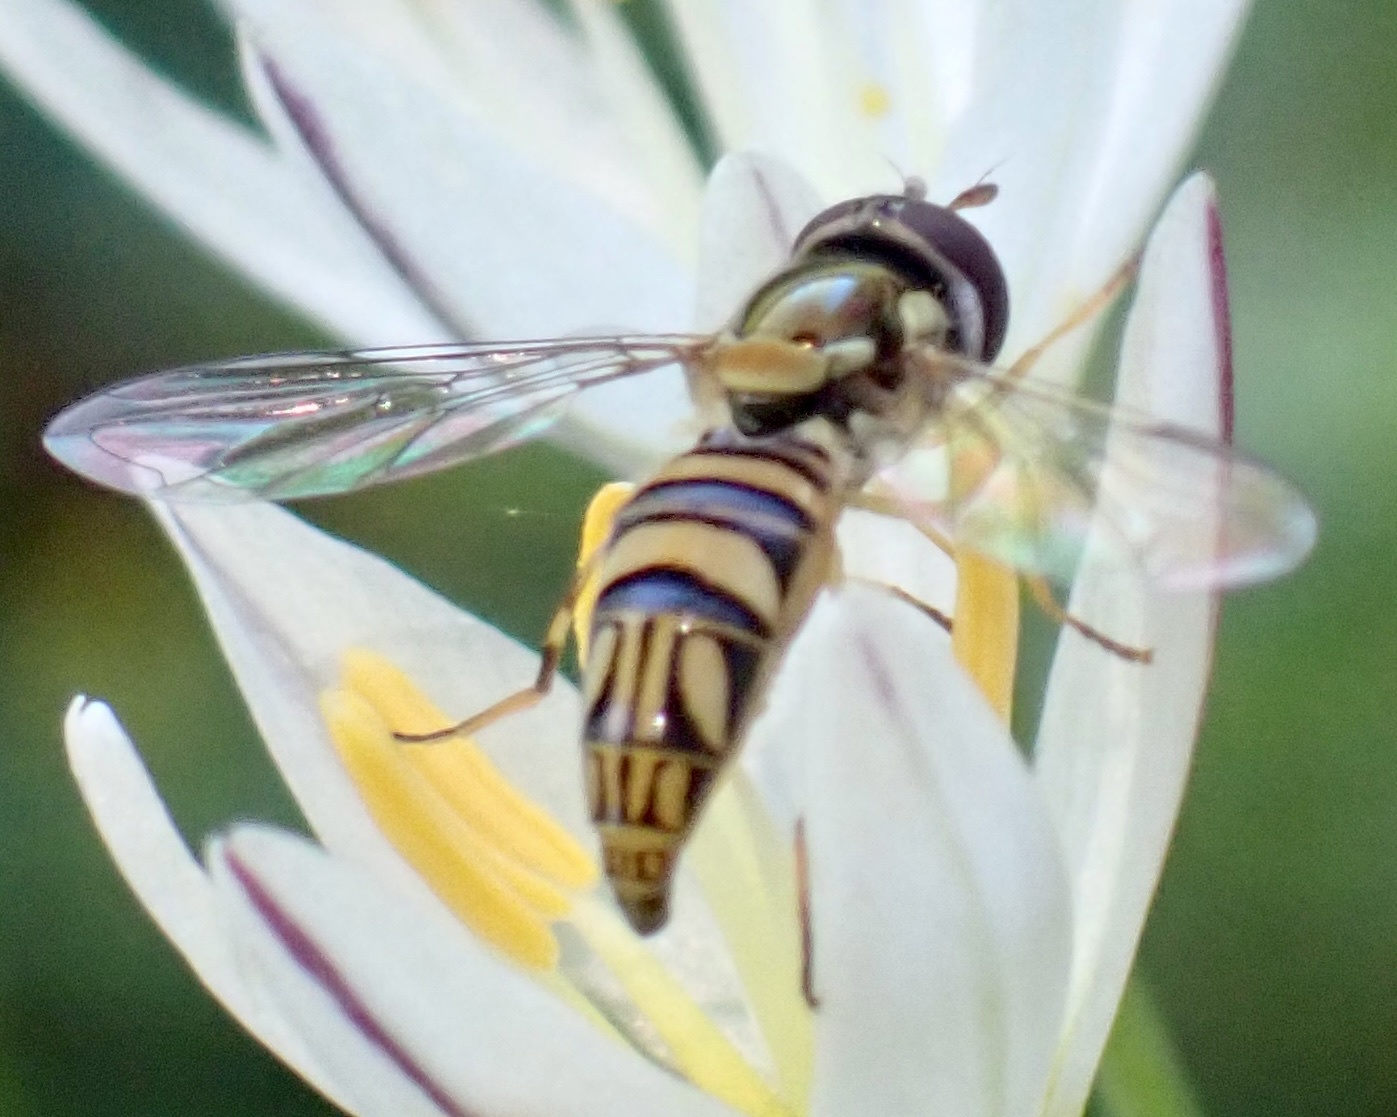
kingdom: Animalia
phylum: Arthropoda
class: Insecta
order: Diptera
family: Syrphidae
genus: Allograpta
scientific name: Allograpta obliqua
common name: Common oblique syrphid
